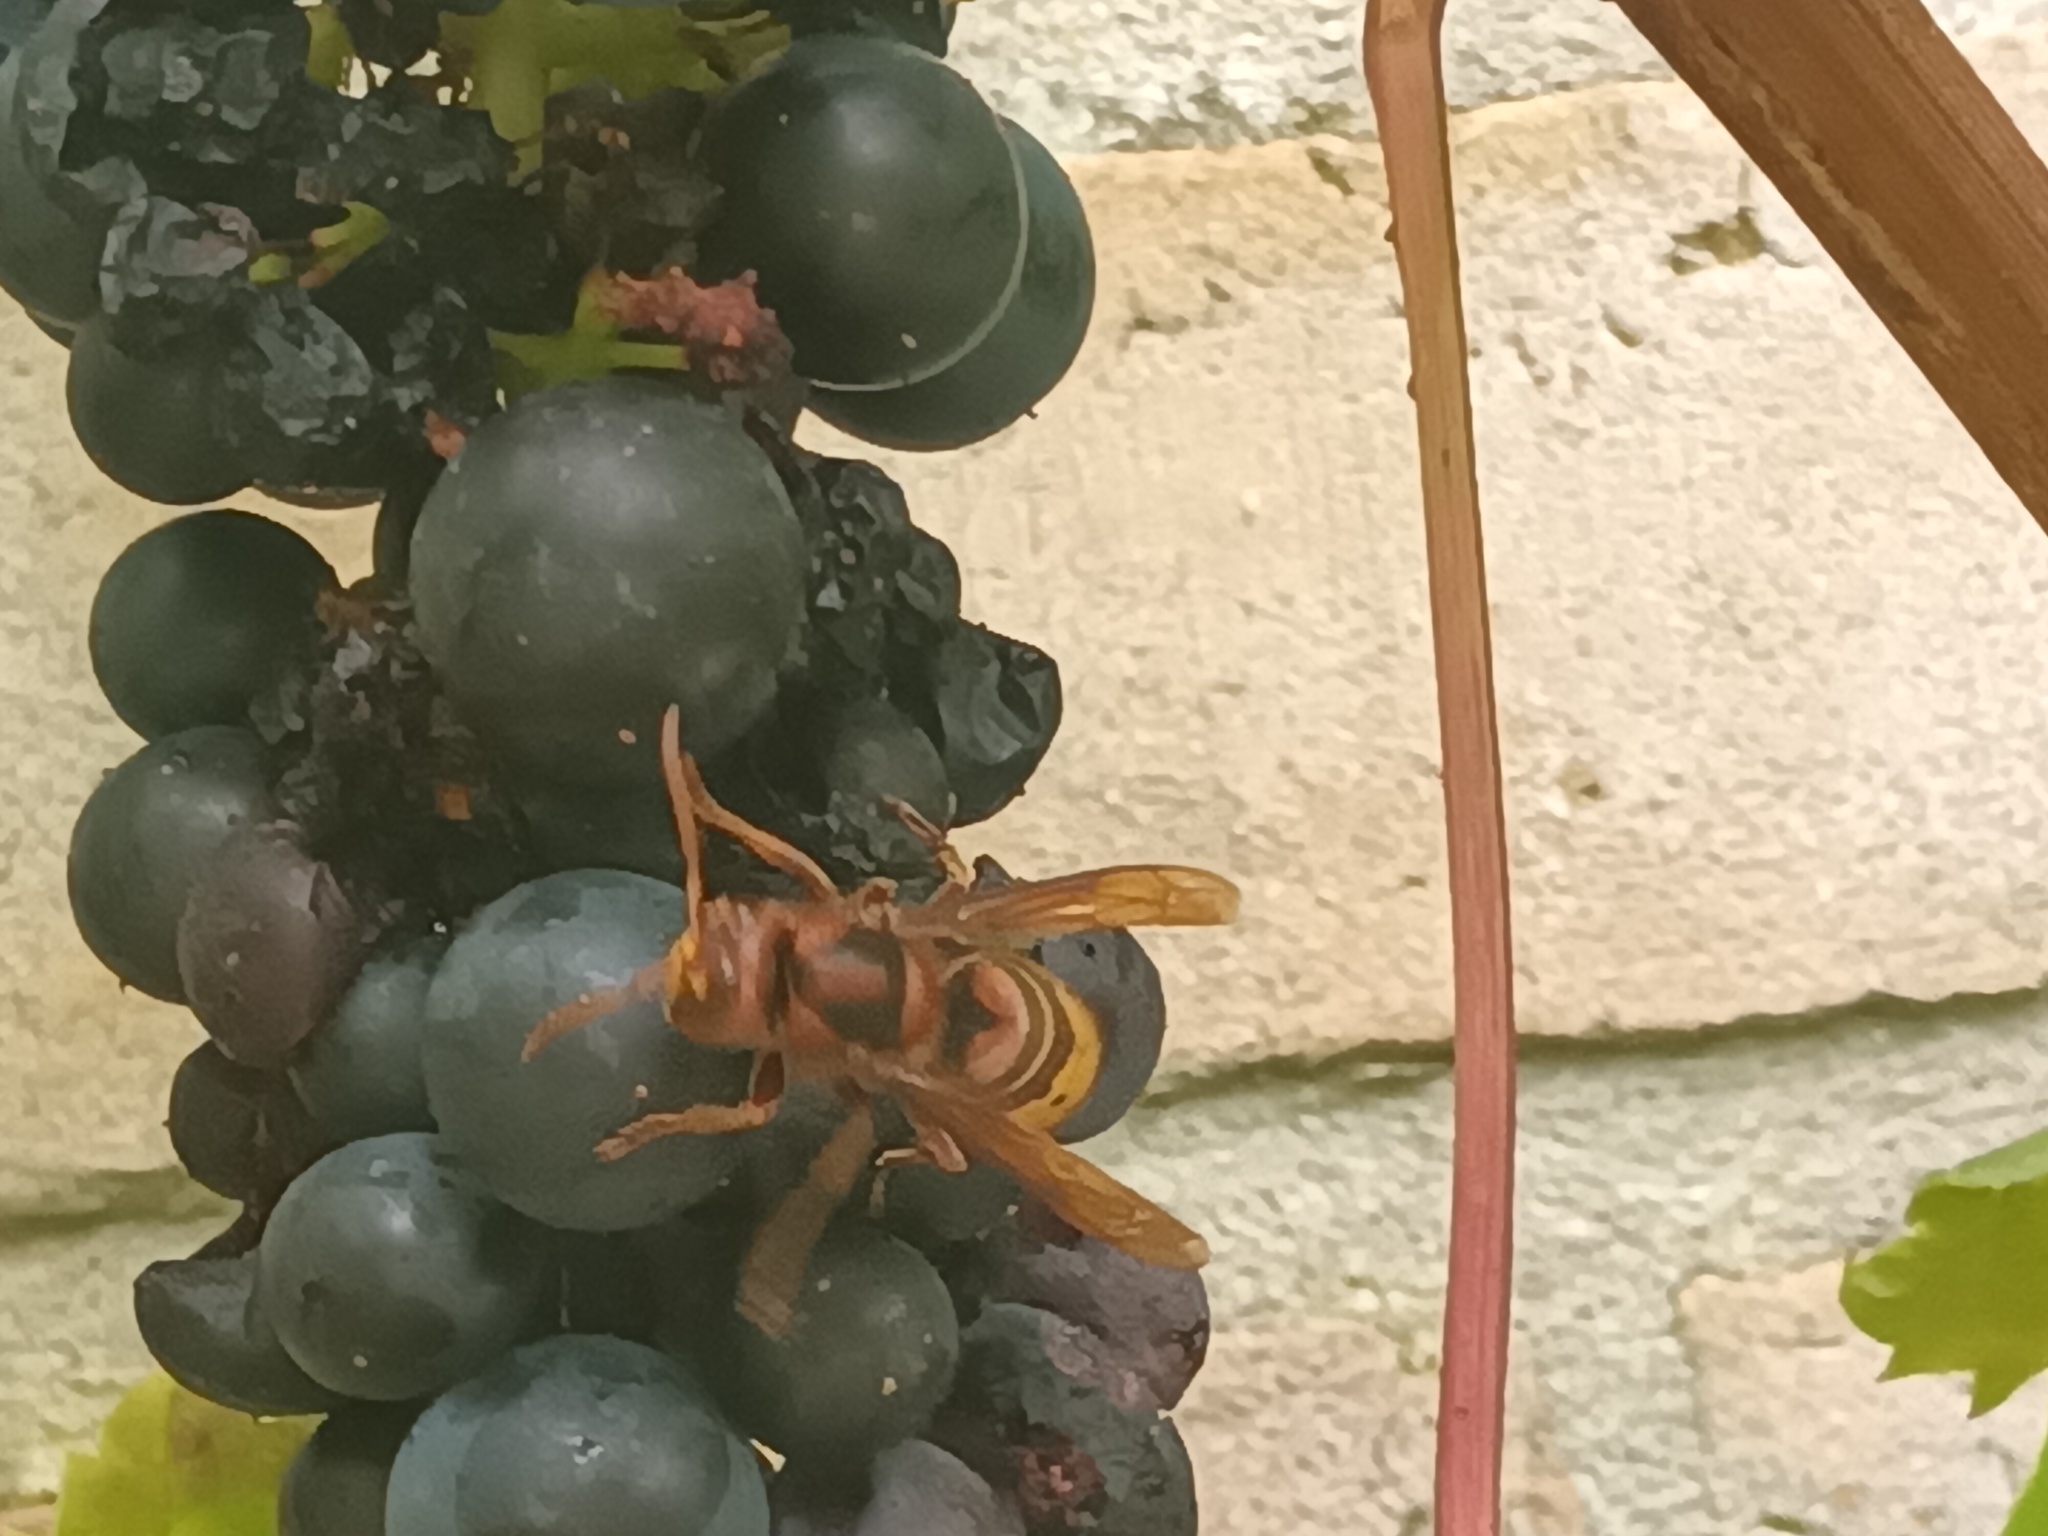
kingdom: Animalia
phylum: Arthropoda
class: Insecta
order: Hymenoptera
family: Vespidae
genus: Vespa
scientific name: Vespa crabro
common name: Hornet
